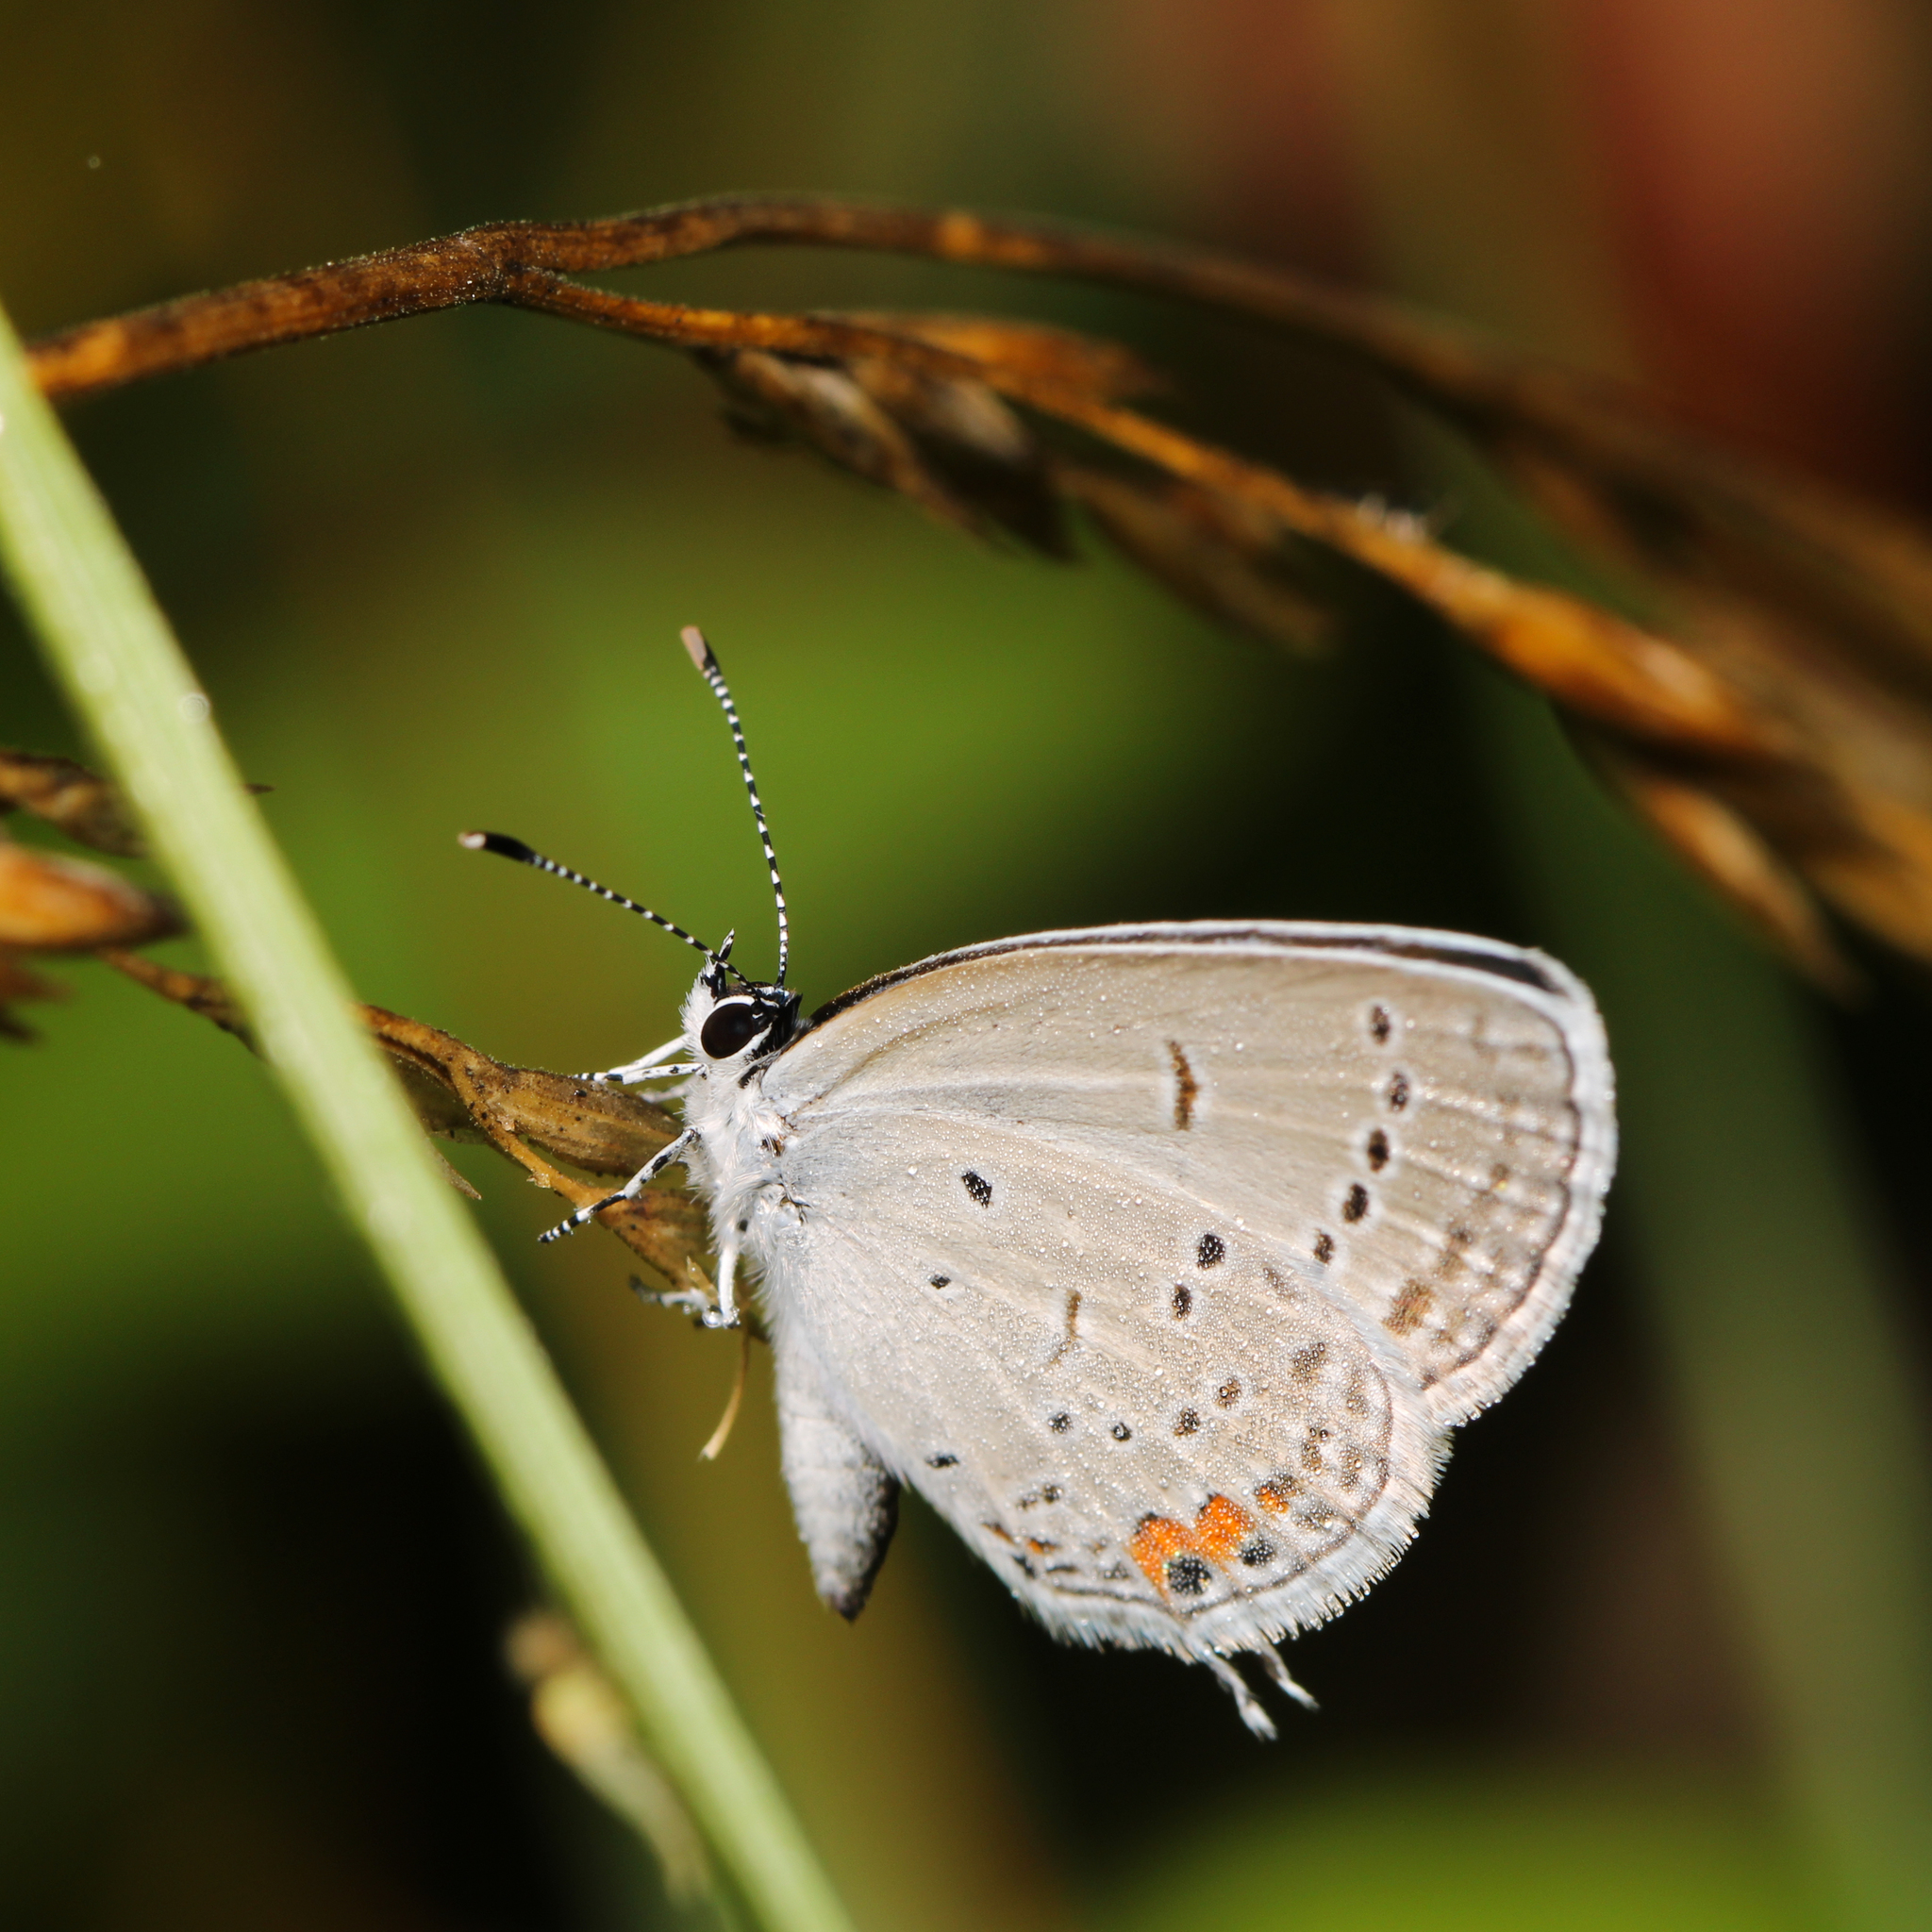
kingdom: Animalia
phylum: Arthropoda
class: Insecta
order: Lepidoptera
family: Lycaenidae
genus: Elkalyce
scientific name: Elkalyce comyntas
